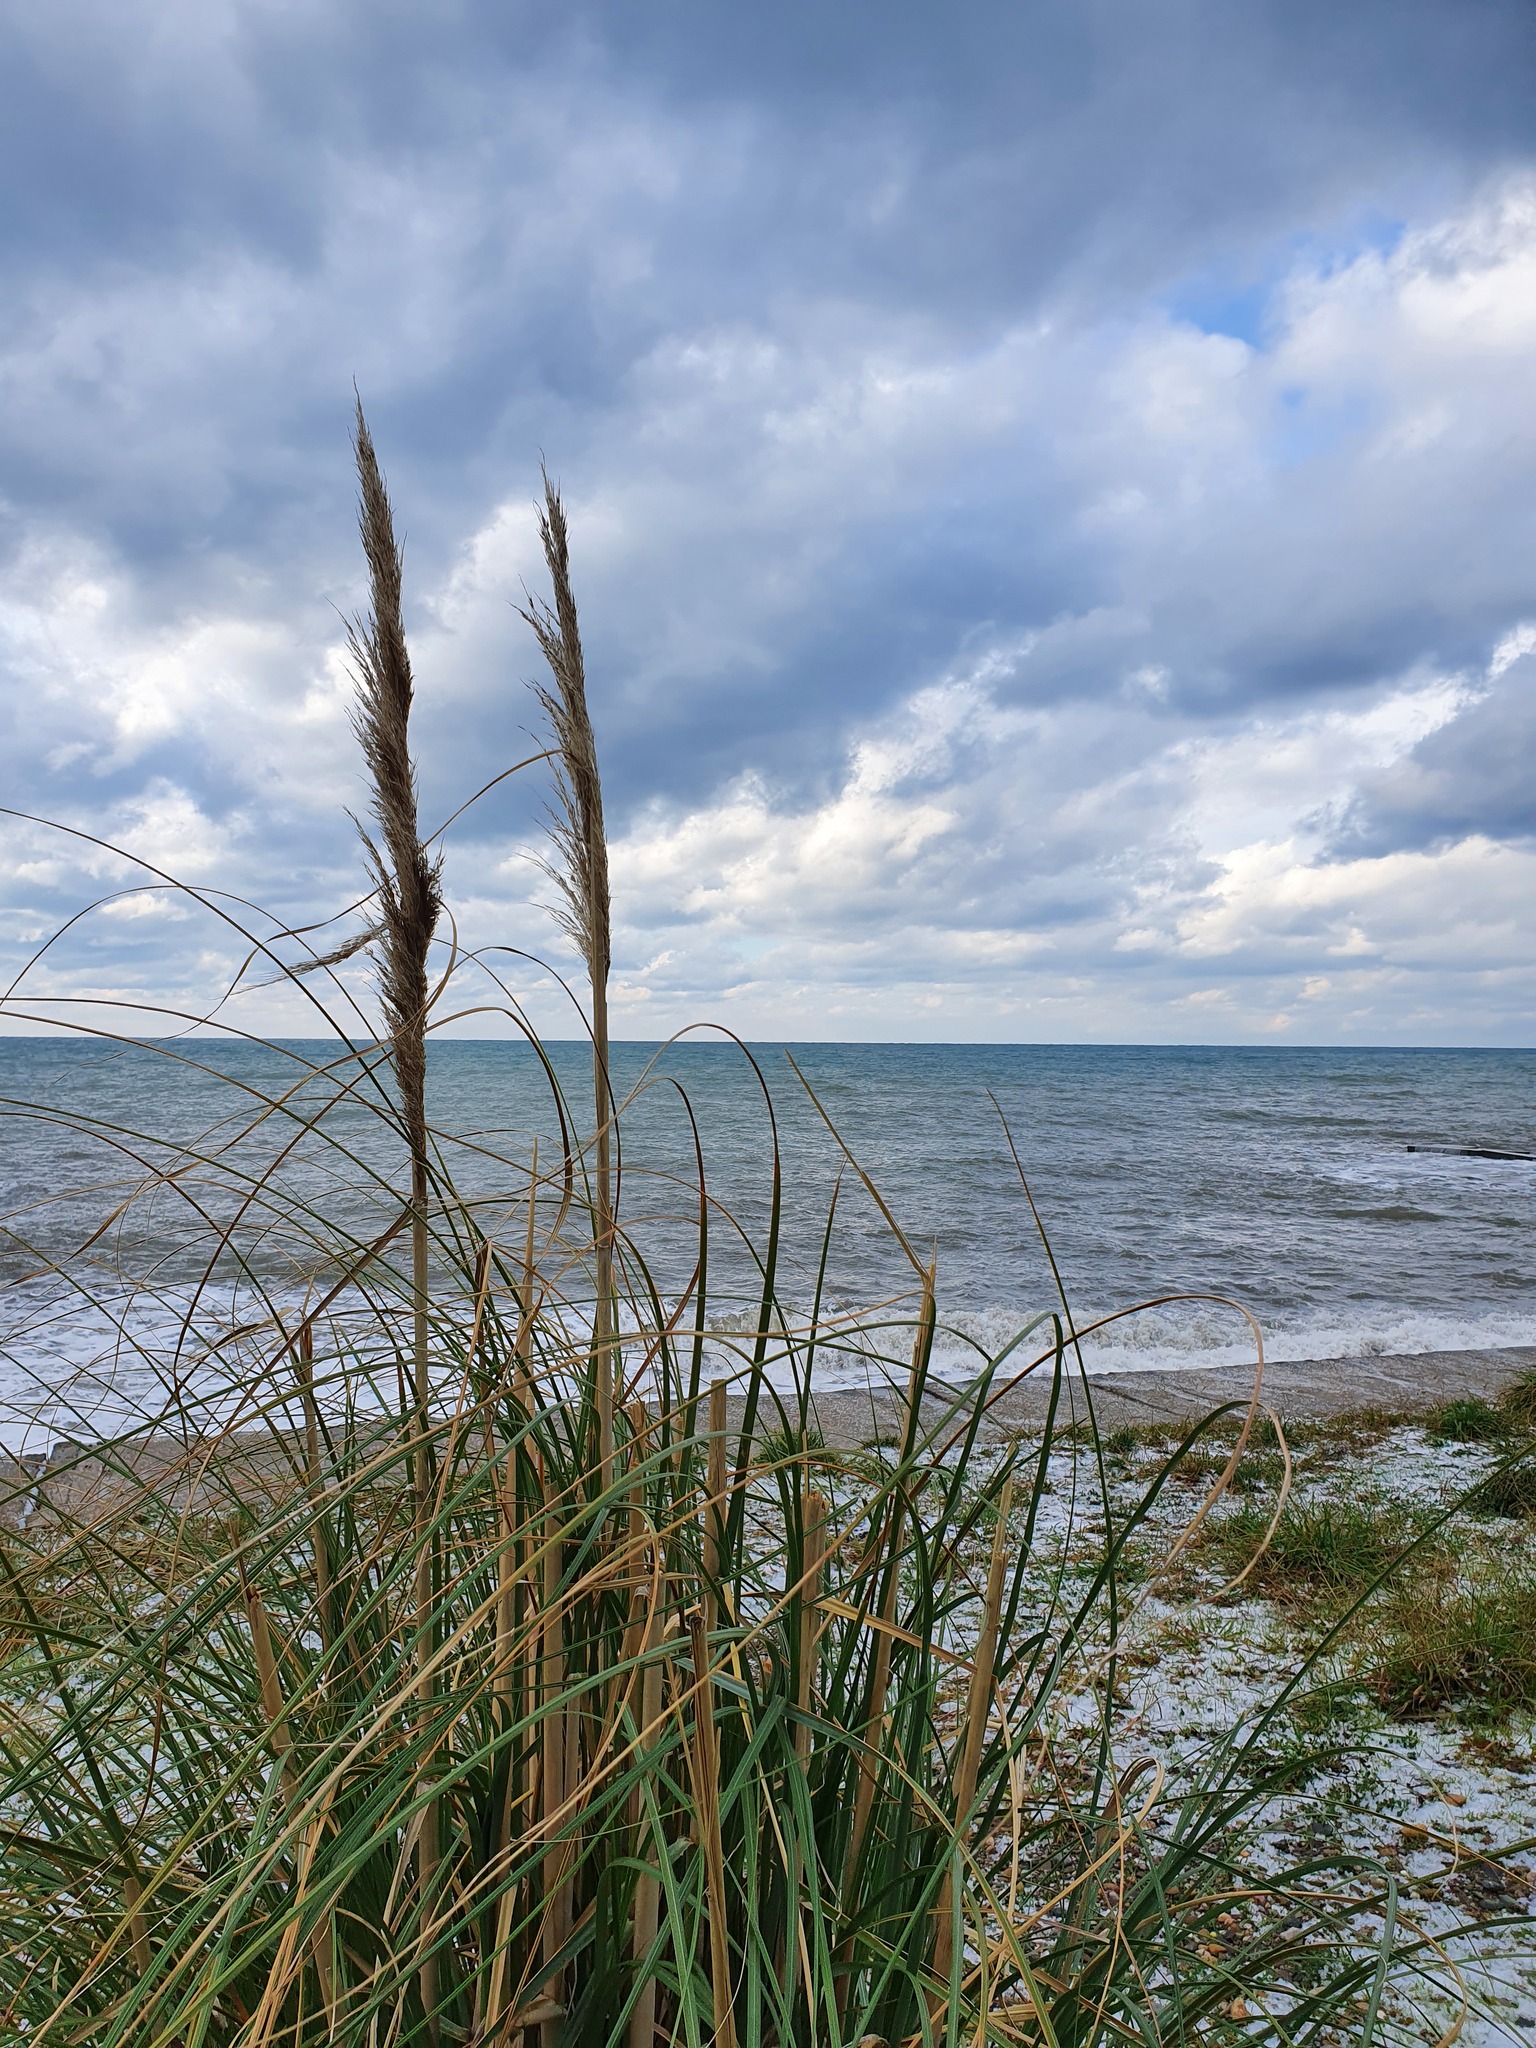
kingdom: Plantae
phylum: Tracheophyta
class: Liliopsida
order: Poales
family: Poaceae
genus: Cortaderia
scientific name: Cortaderia selloana
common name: Uruguayan pampas grass
